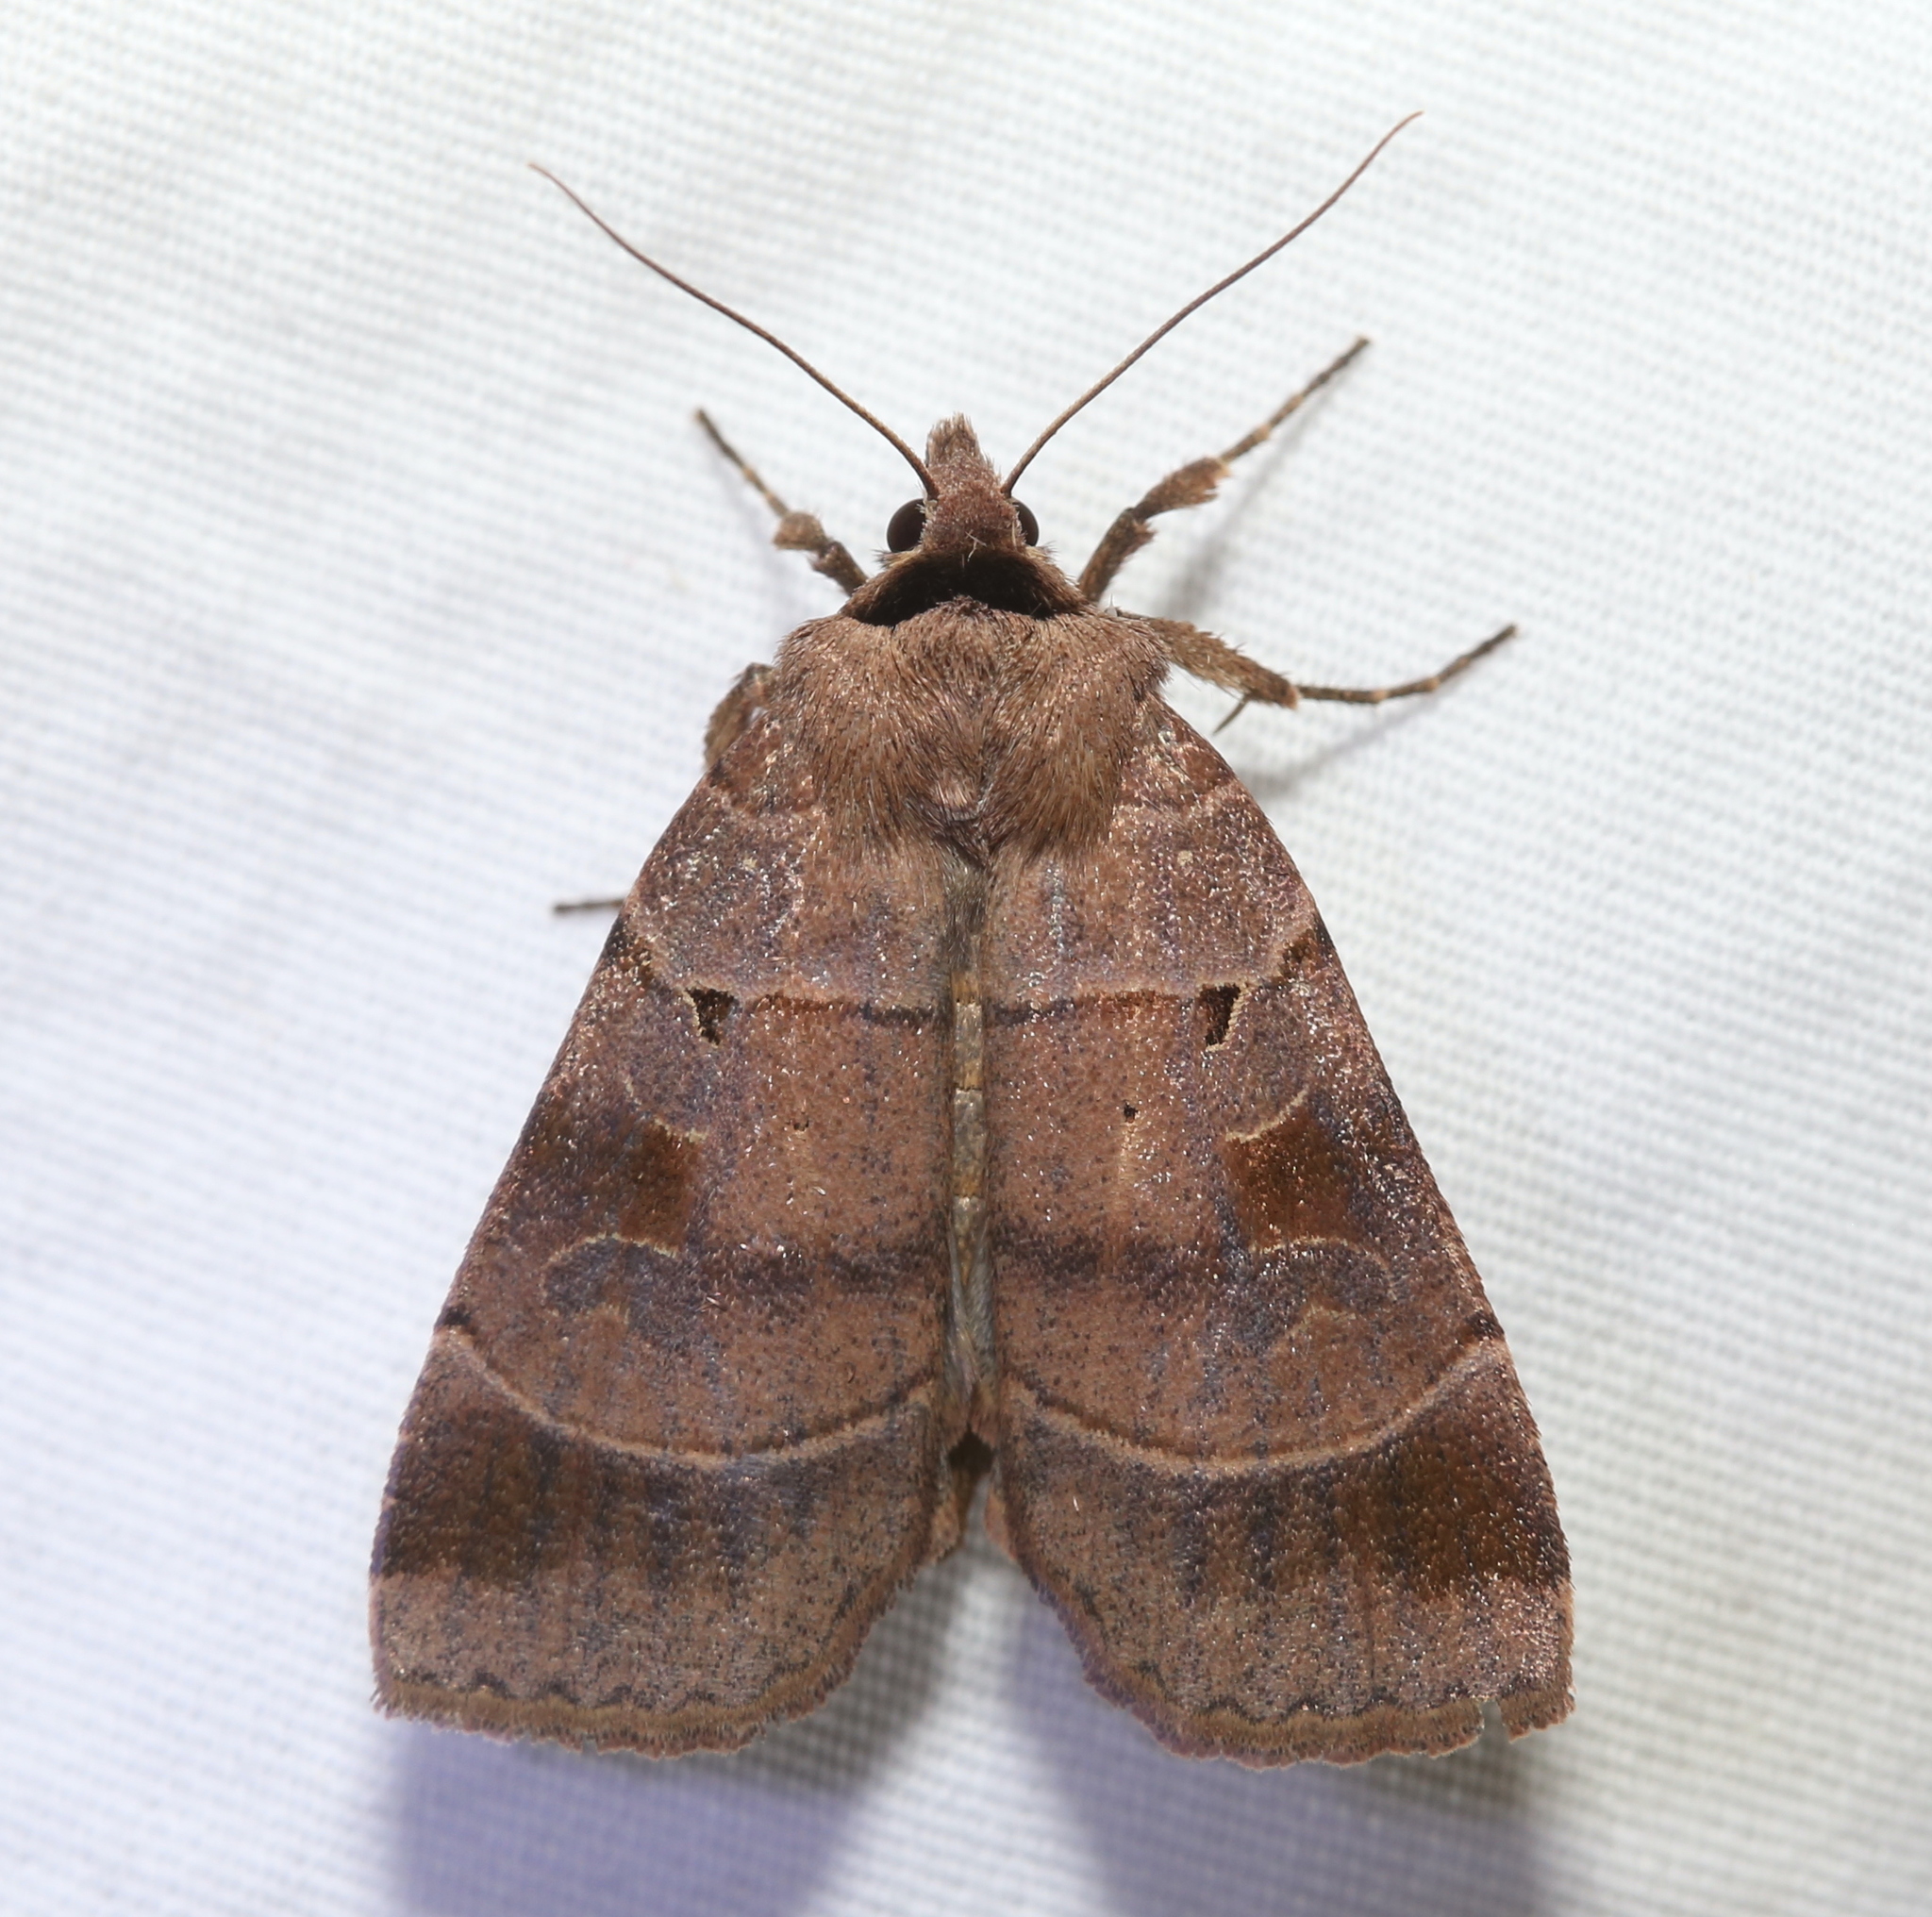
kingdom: Animalia
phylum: Arthropoda
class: Insecta
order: Lepidoptera
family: Noctuidae
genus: Agnorisma
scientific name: Agnorisma badinodis
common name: Pale-banded dart
